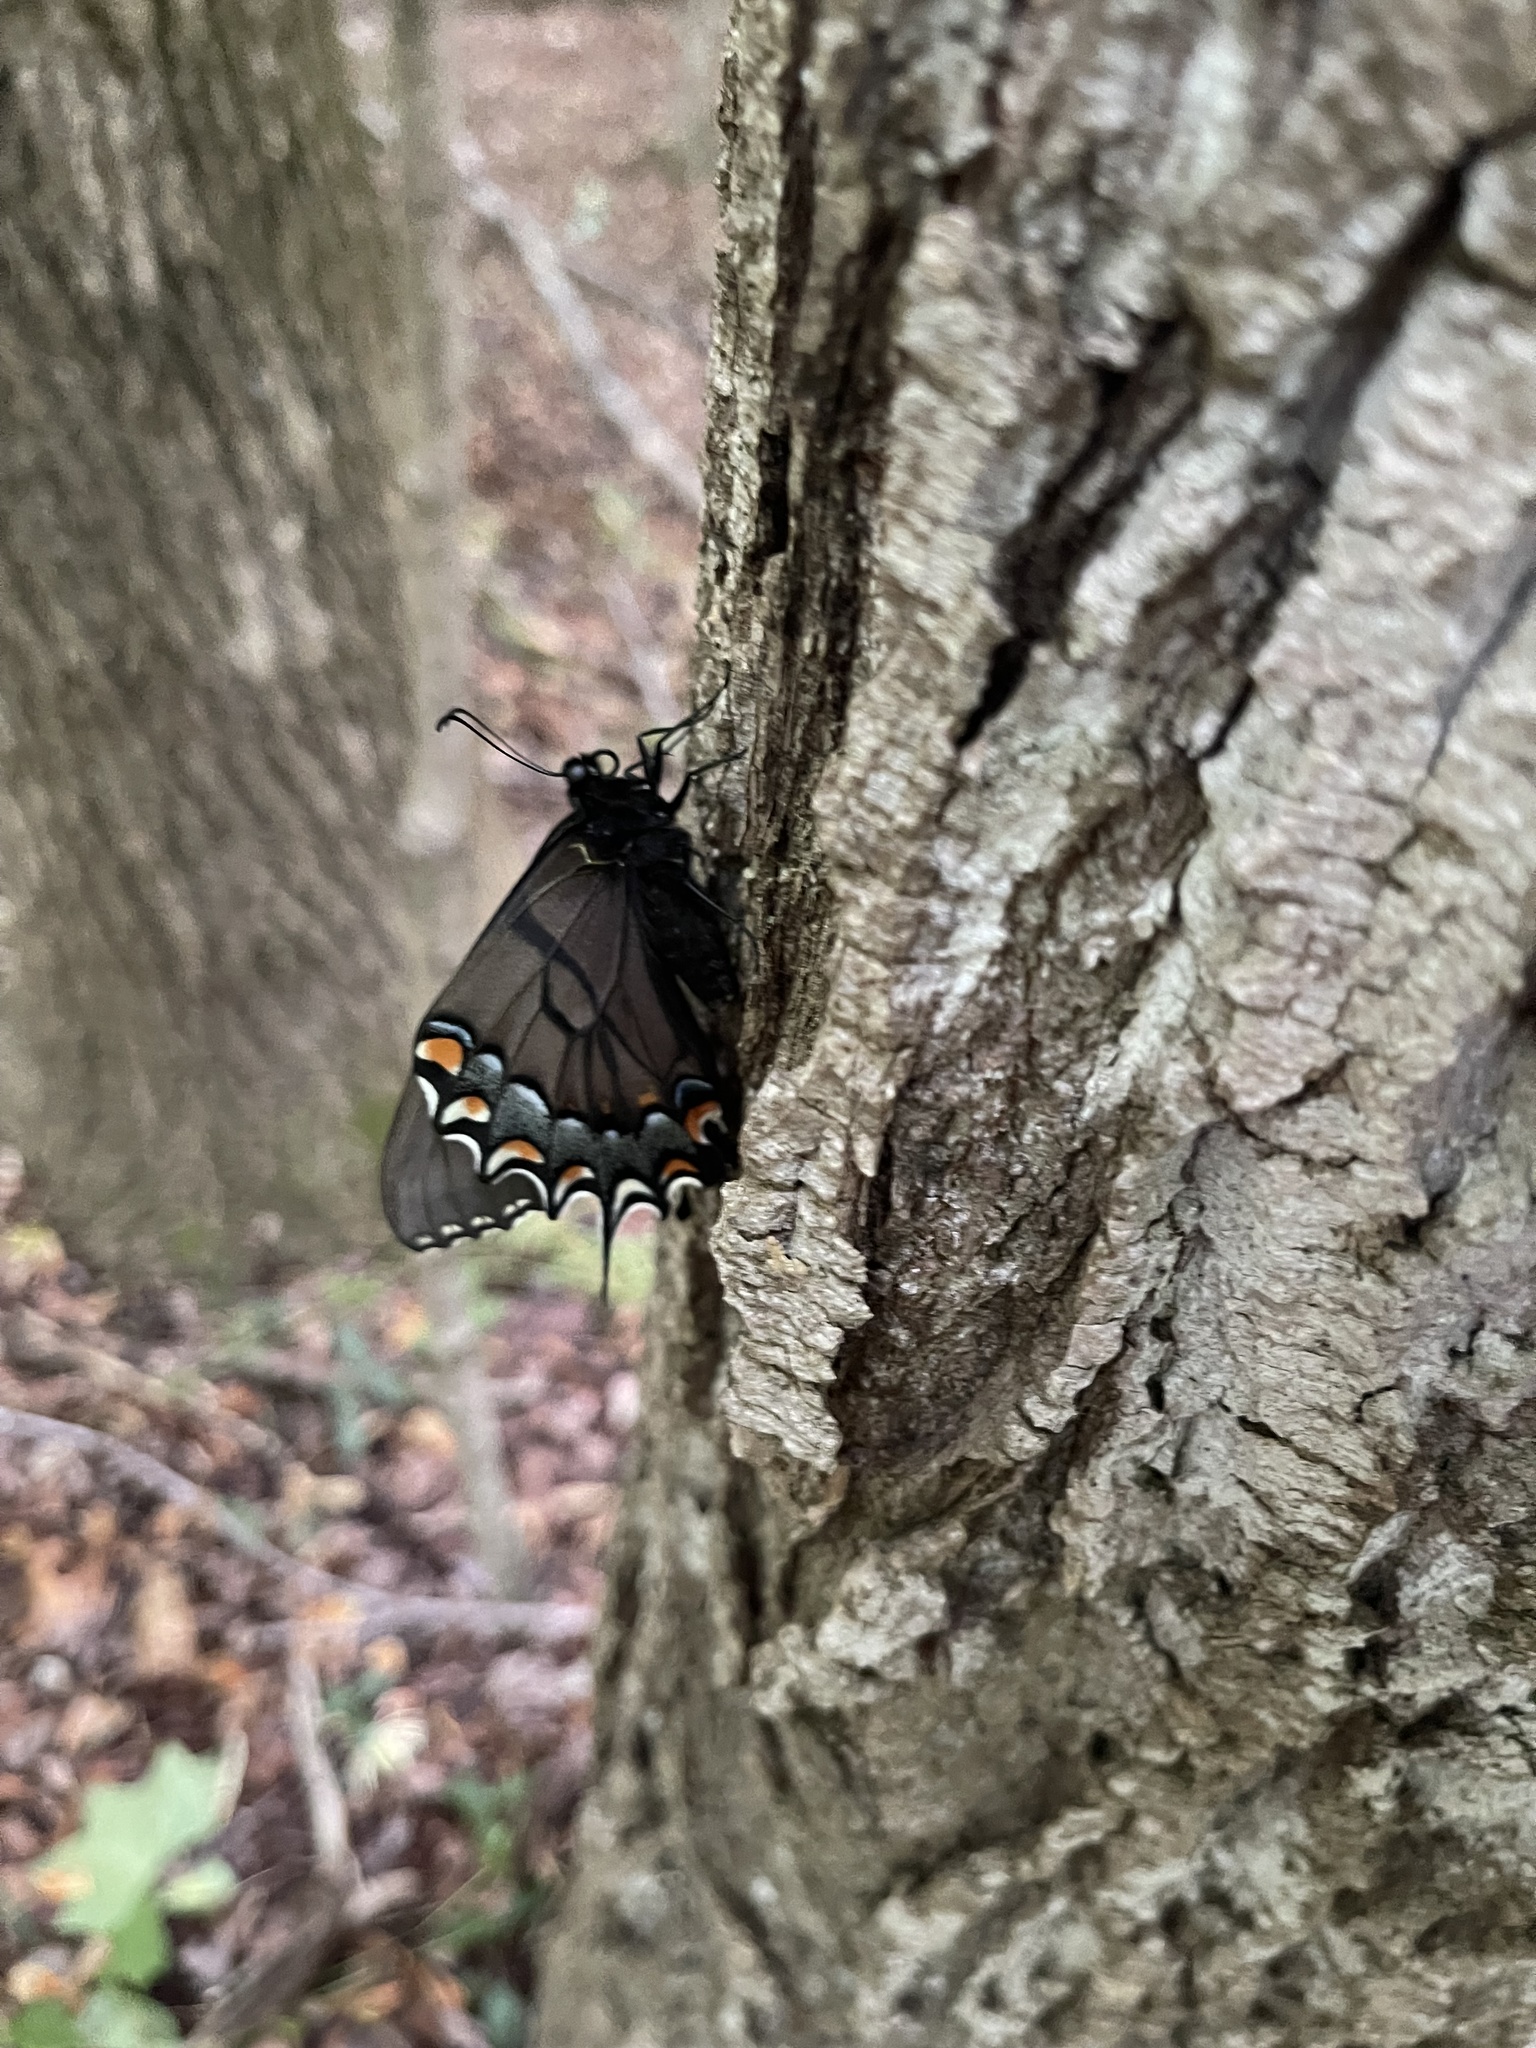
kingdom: Animalia
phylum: Arthropoda
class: Insecta
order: Lepidoptera
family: Papilionidae
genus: Papilio
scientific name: Papilio glaucus
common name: Tiger swallowtail
